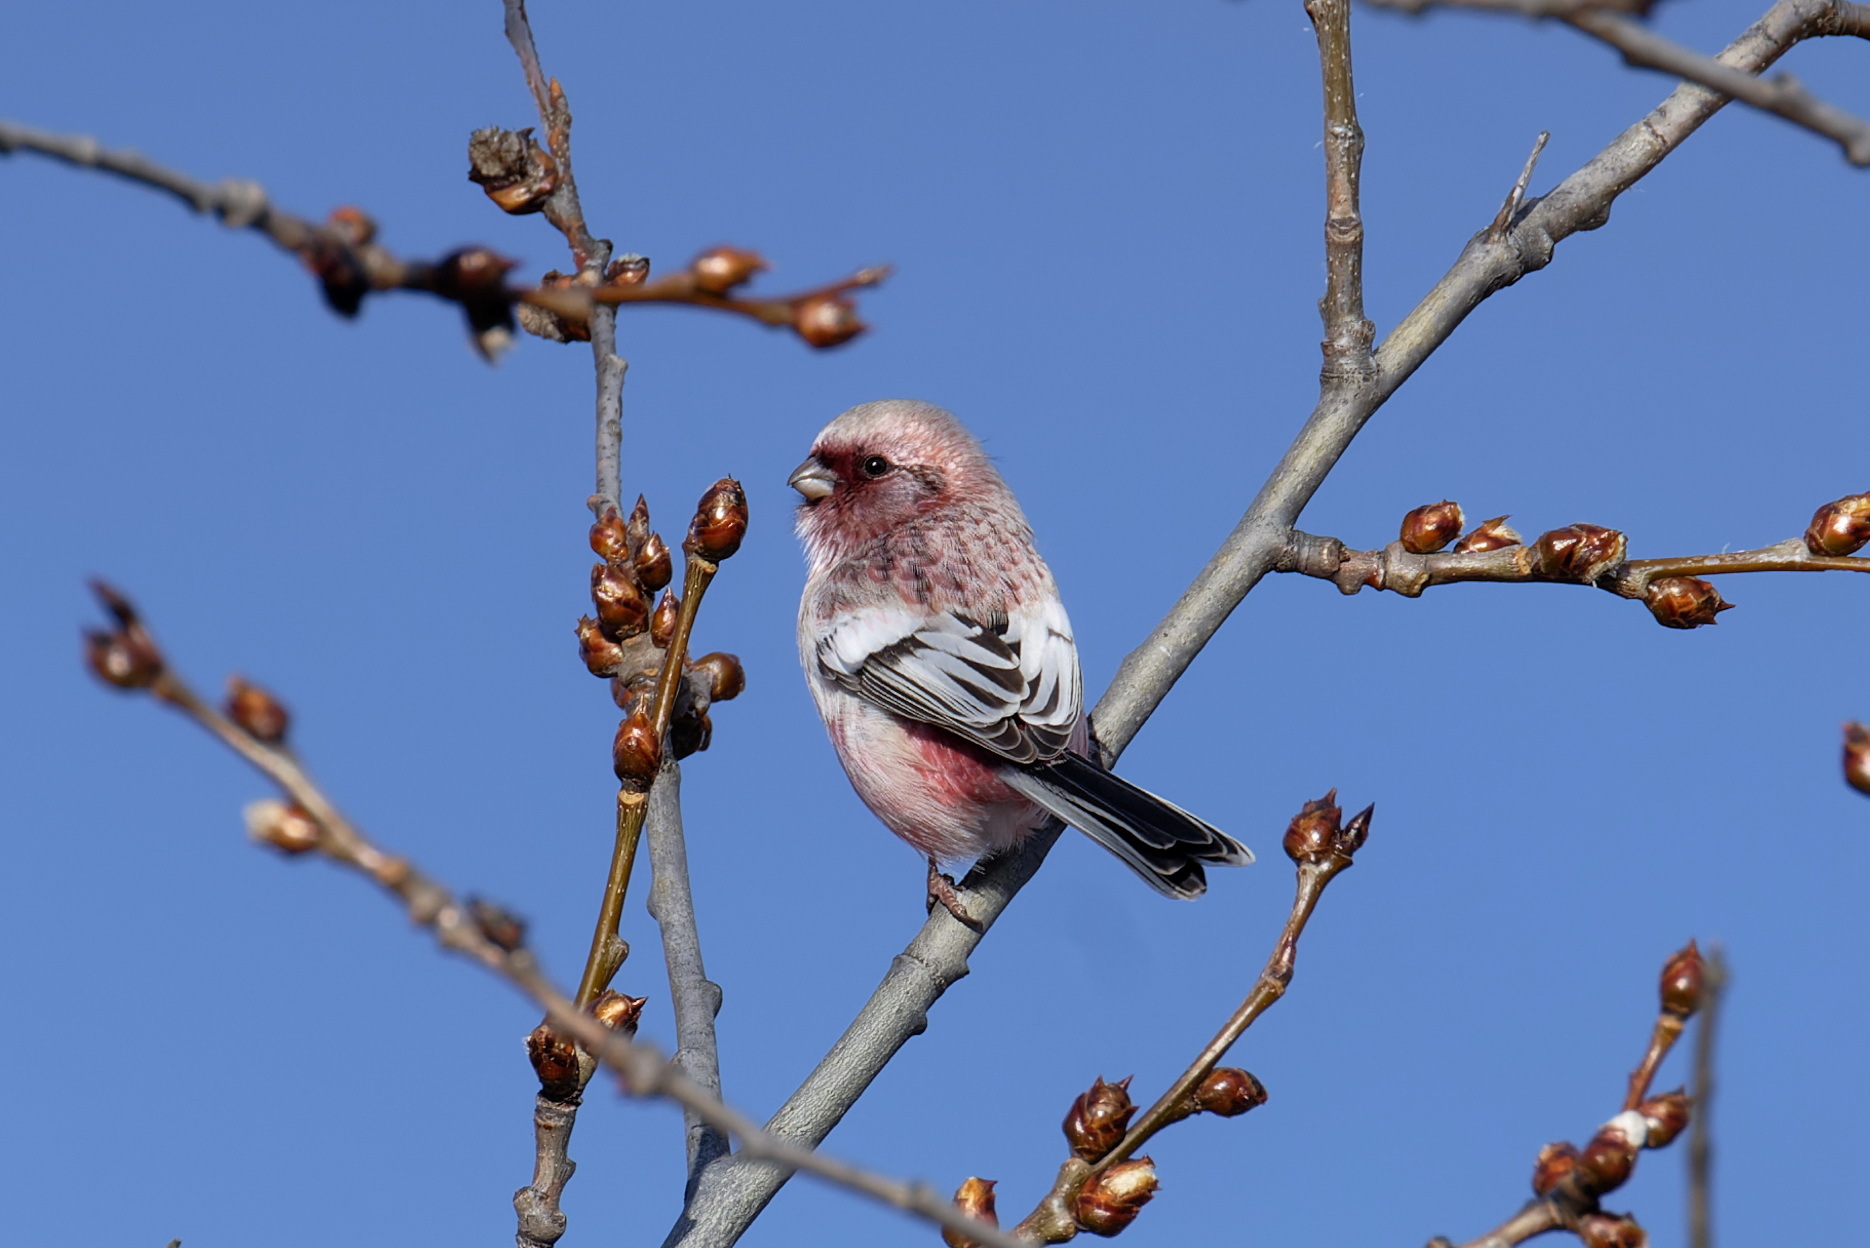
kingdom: Animalia
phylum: Chordata
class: Aves
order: Passeriformes
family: Fringillidae
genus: Carpodacus
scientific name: Carpodacus sibiricus
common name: Long-tailed rosefinch
